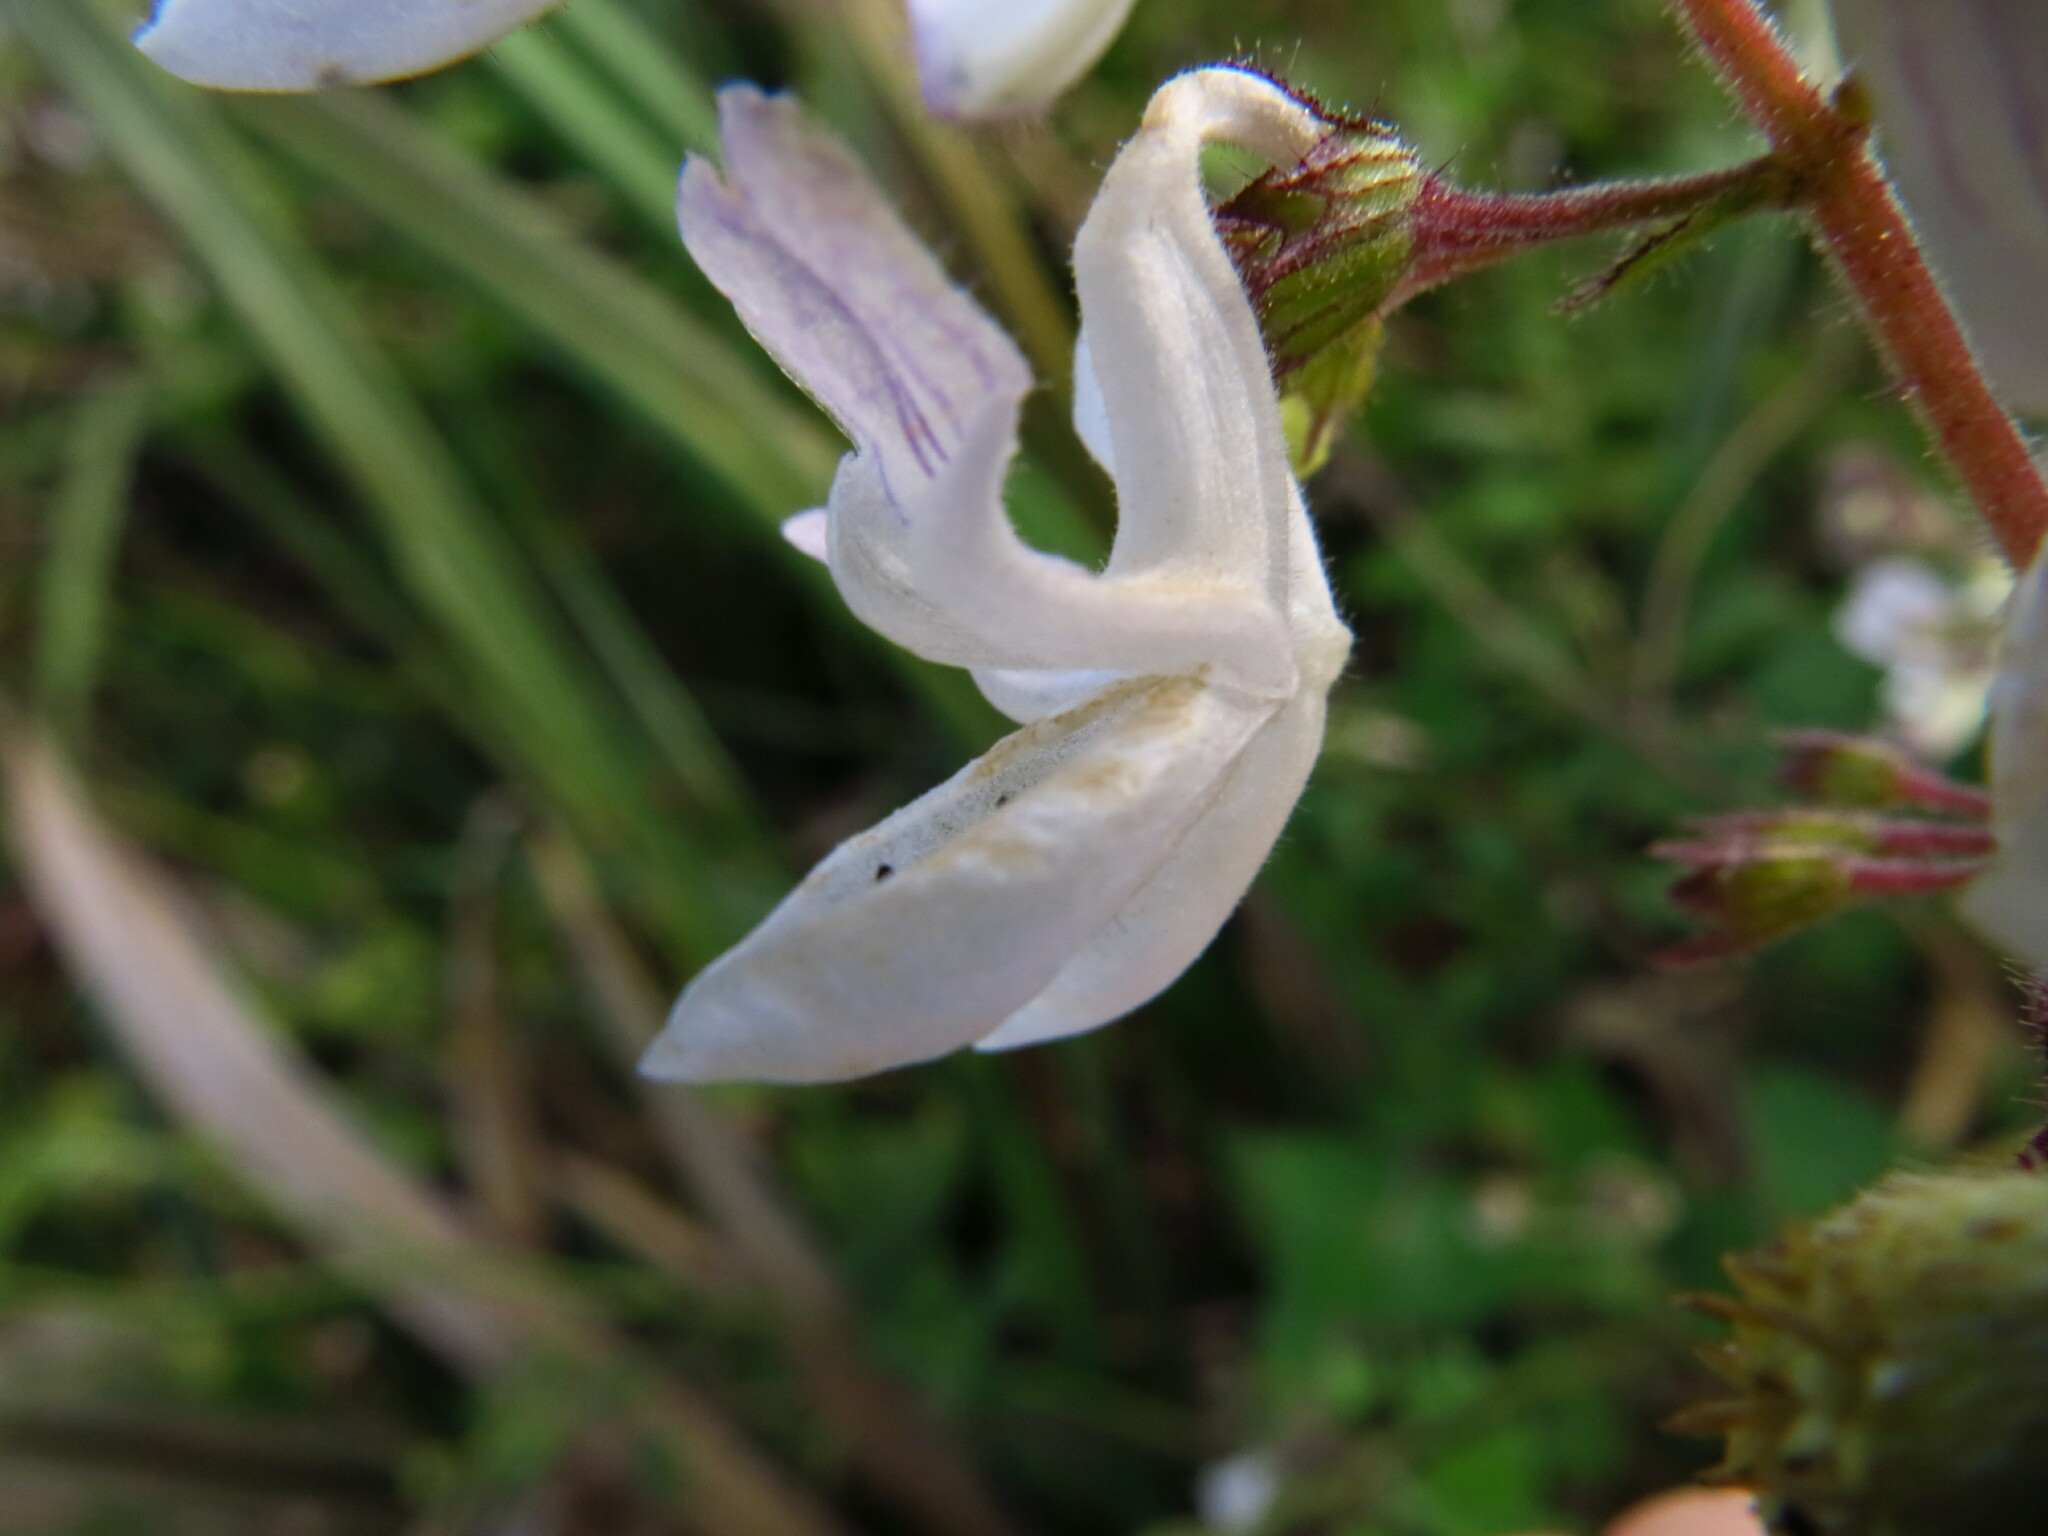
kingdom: Plantae
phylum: Tracheophyta
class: Magnoliopsida
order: Lamiales
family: Lamiaceae
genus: Equilabium
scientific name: Equilabium laxiflorum
